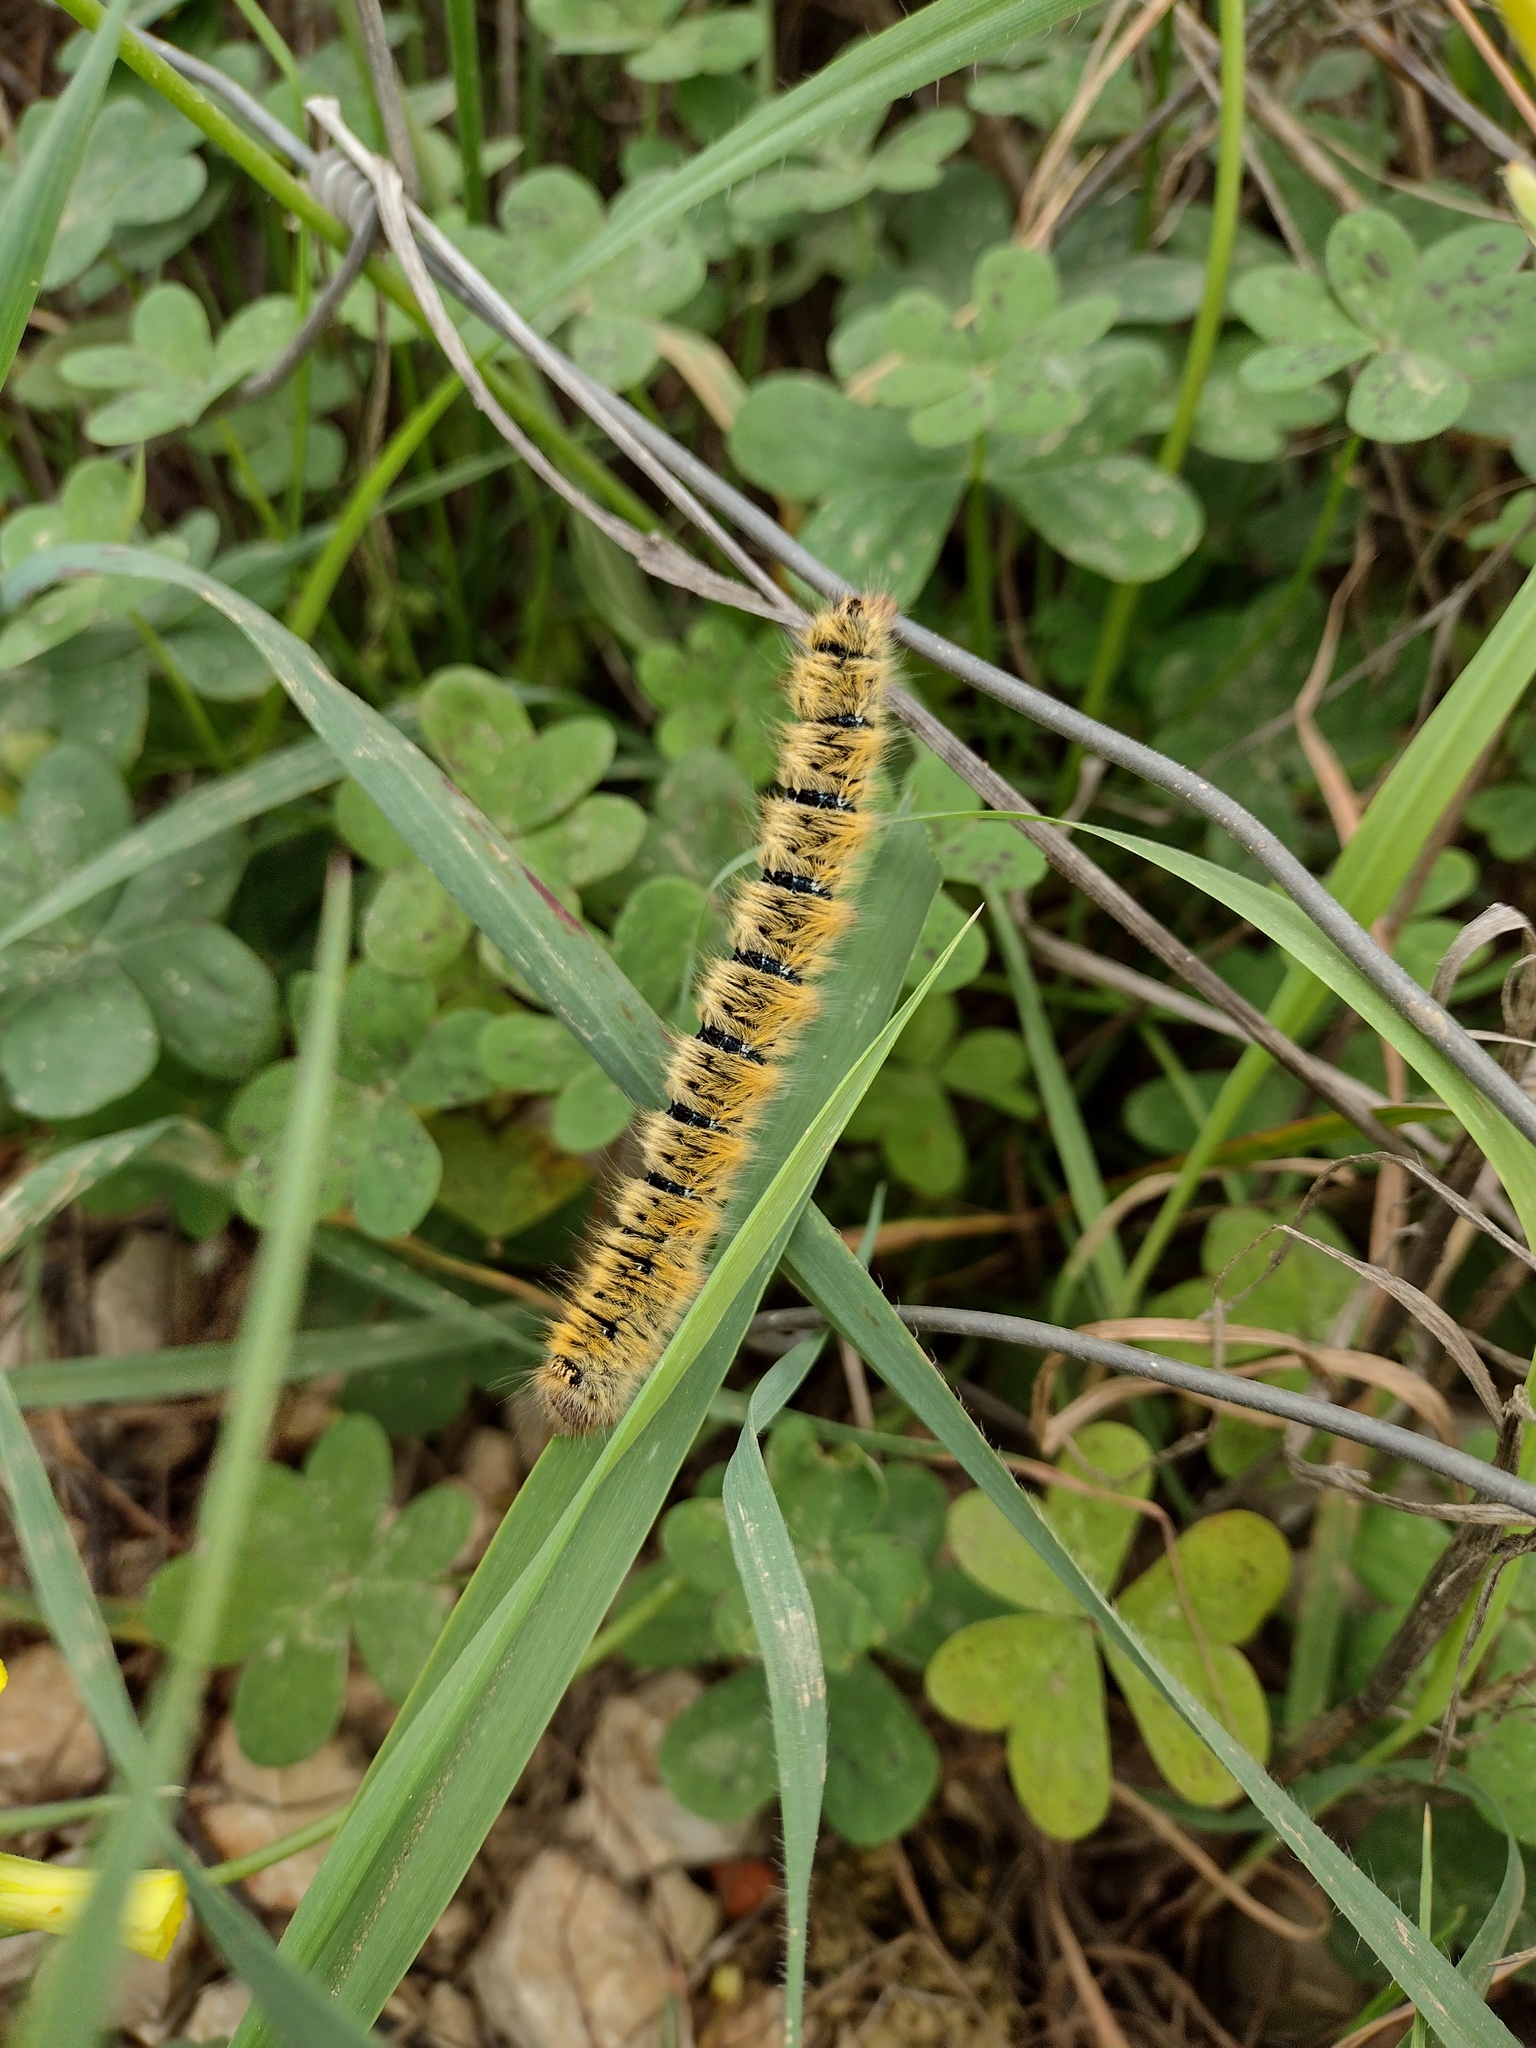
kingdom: Animalia
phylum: Arthropoda
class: Insecta
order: Lepidoptera
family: Lasiocampidae
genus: Lasiocampa
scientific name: Lasiocampa trifolii
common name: Grass eggar
